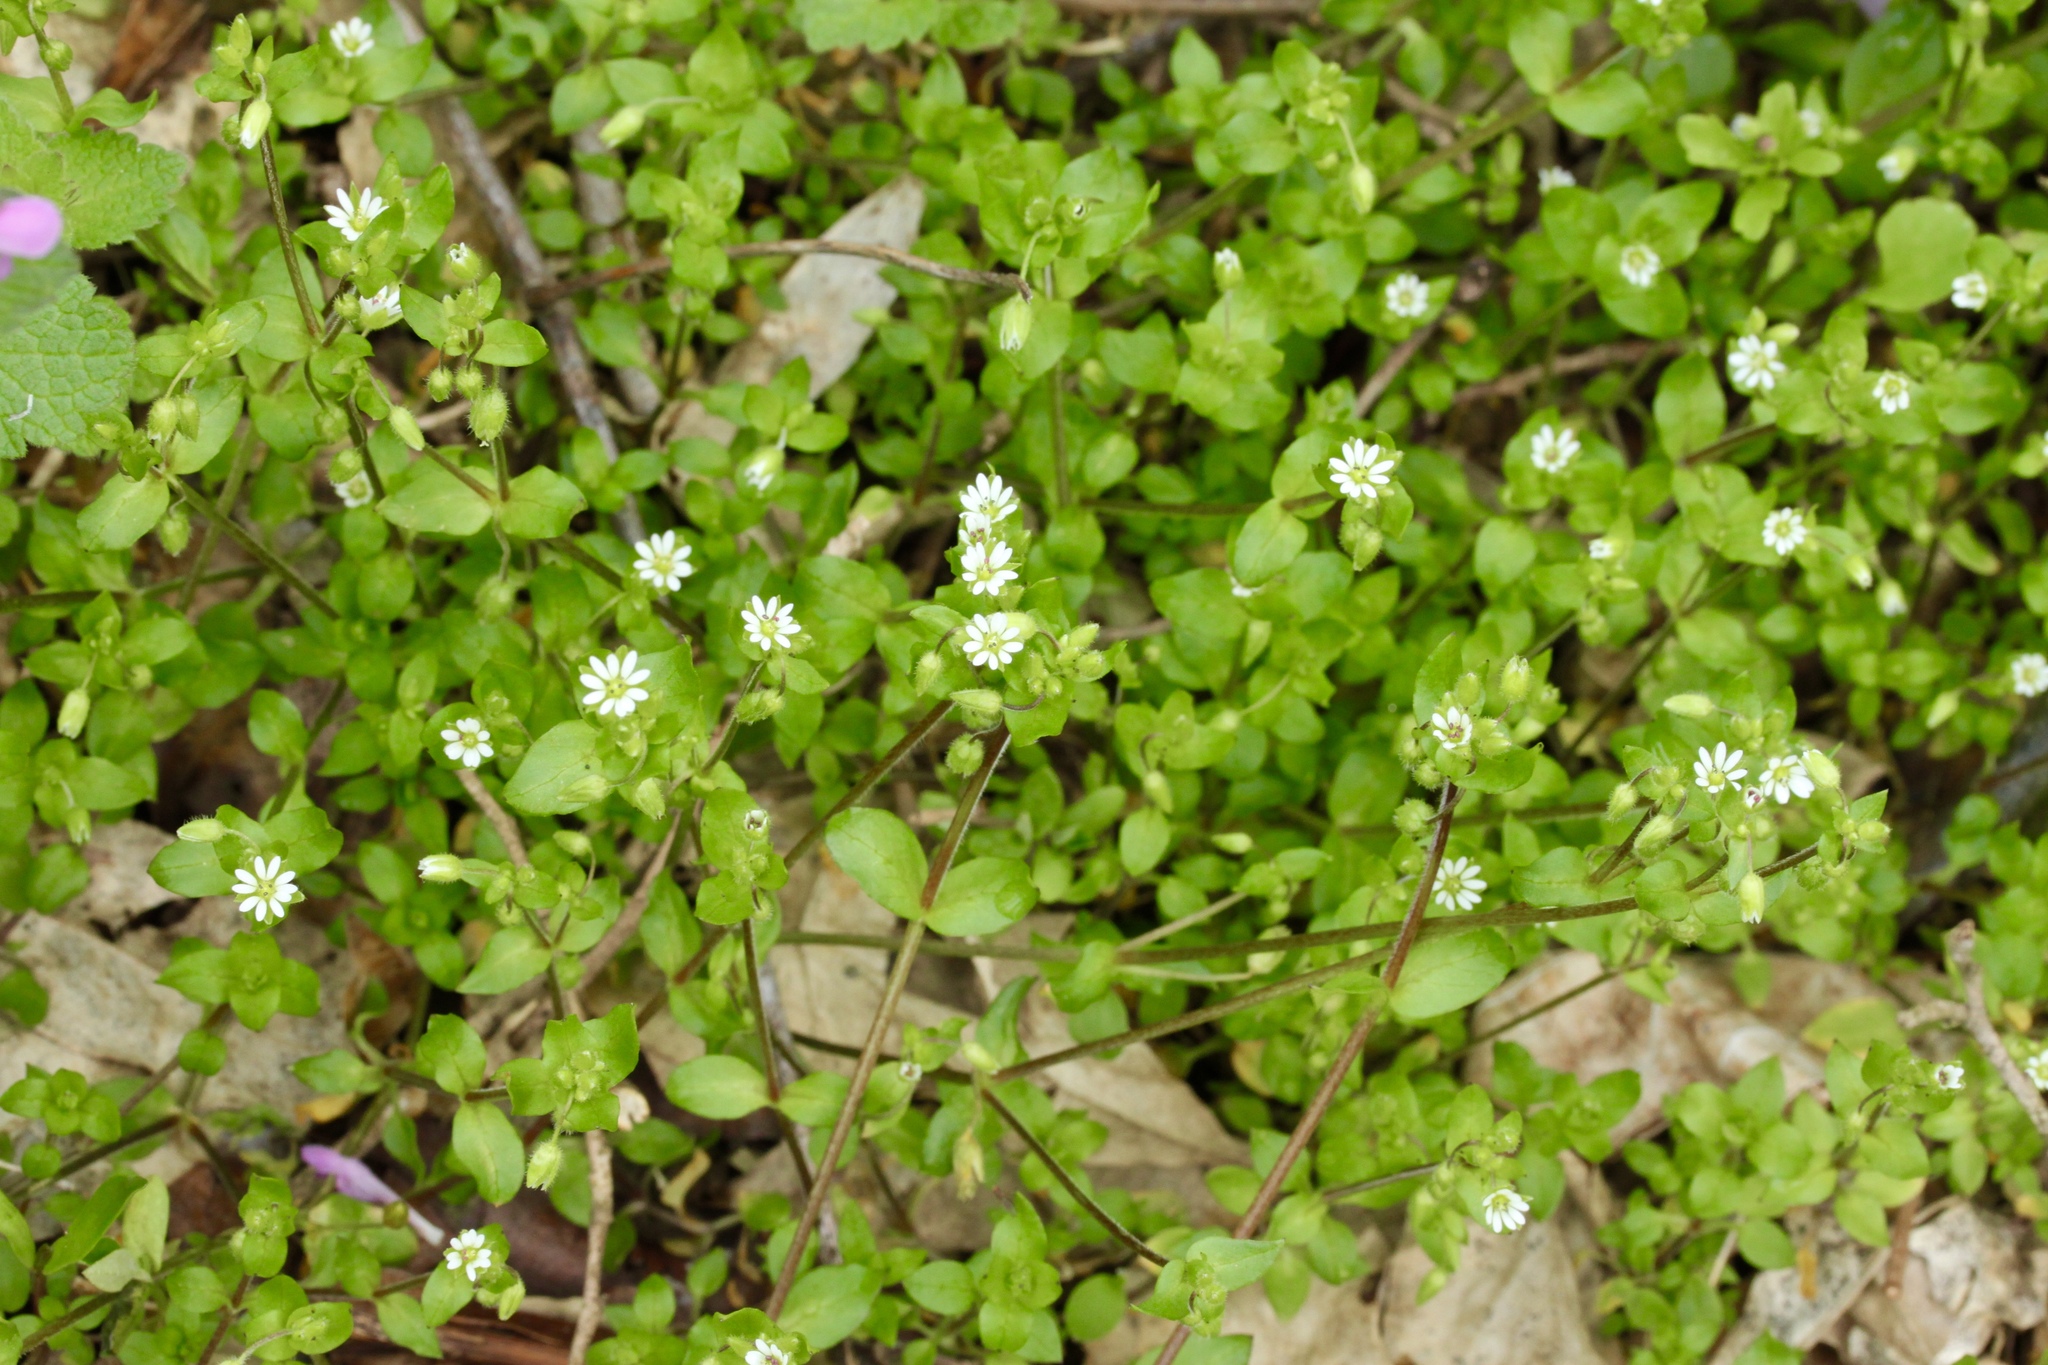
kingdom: Plantae
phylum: Tracheophyta
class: Magnoliopsida
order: Caryophyllales
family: Caryophyllaceae
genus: Stellaria
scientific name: Stellaria media
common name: Common chickweed
